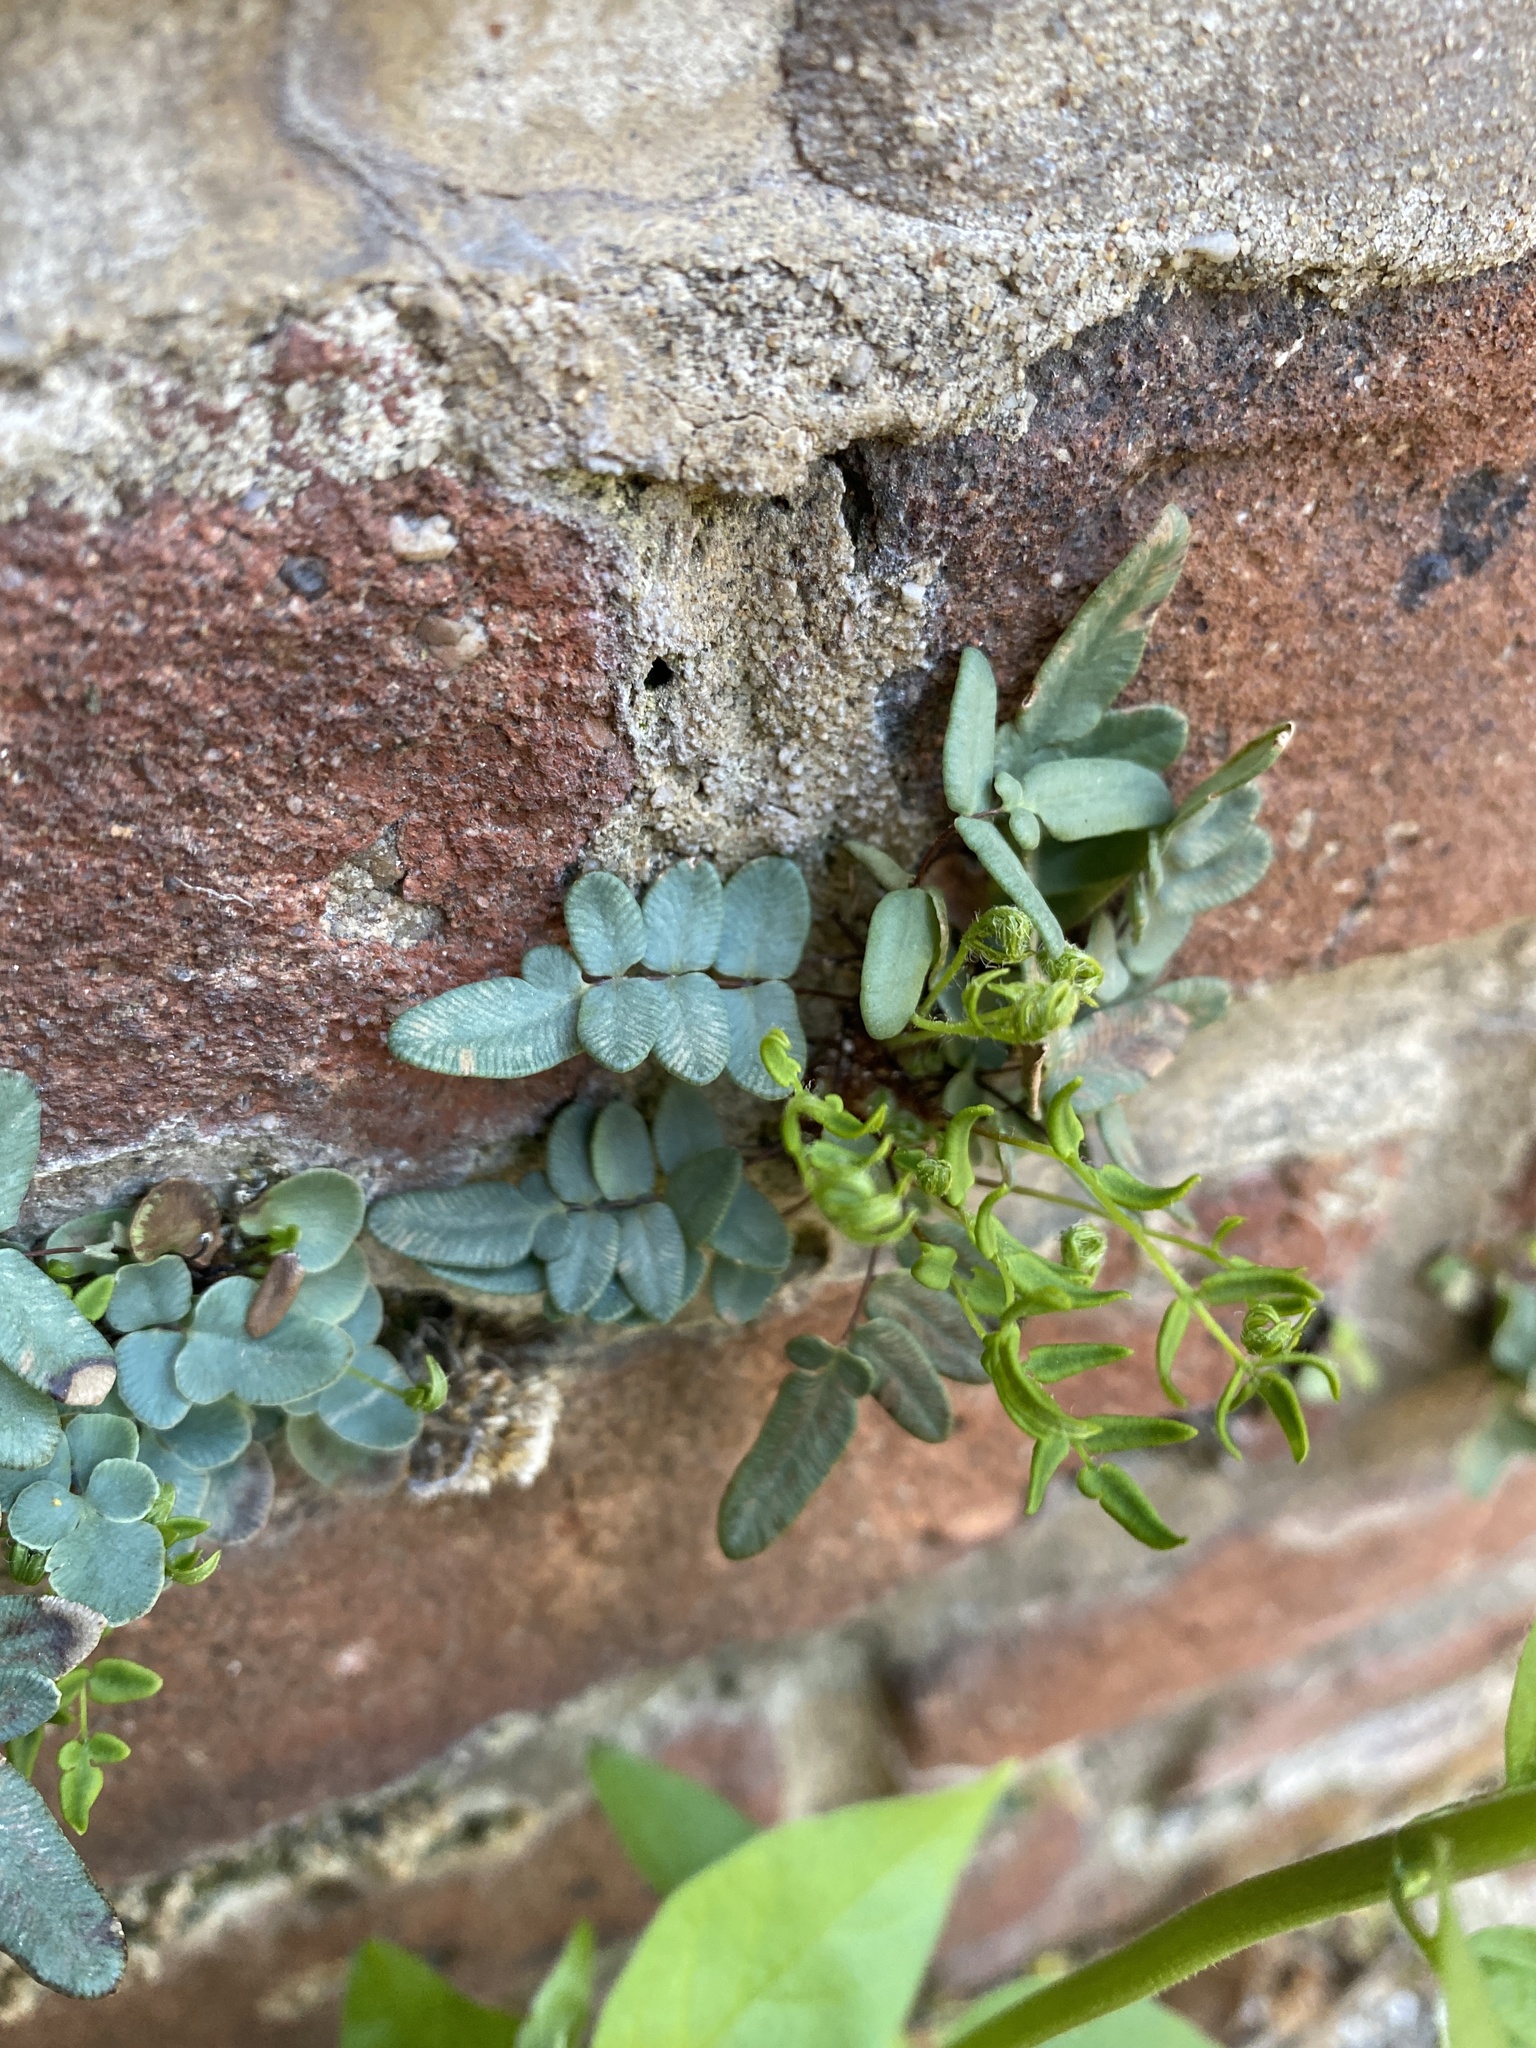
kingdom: Plantae
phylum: Tracheophyta
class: Polypodiopsida
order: Polypodiales
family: Pteridaceae
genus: Pellaea
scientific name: Pellaea glabella
